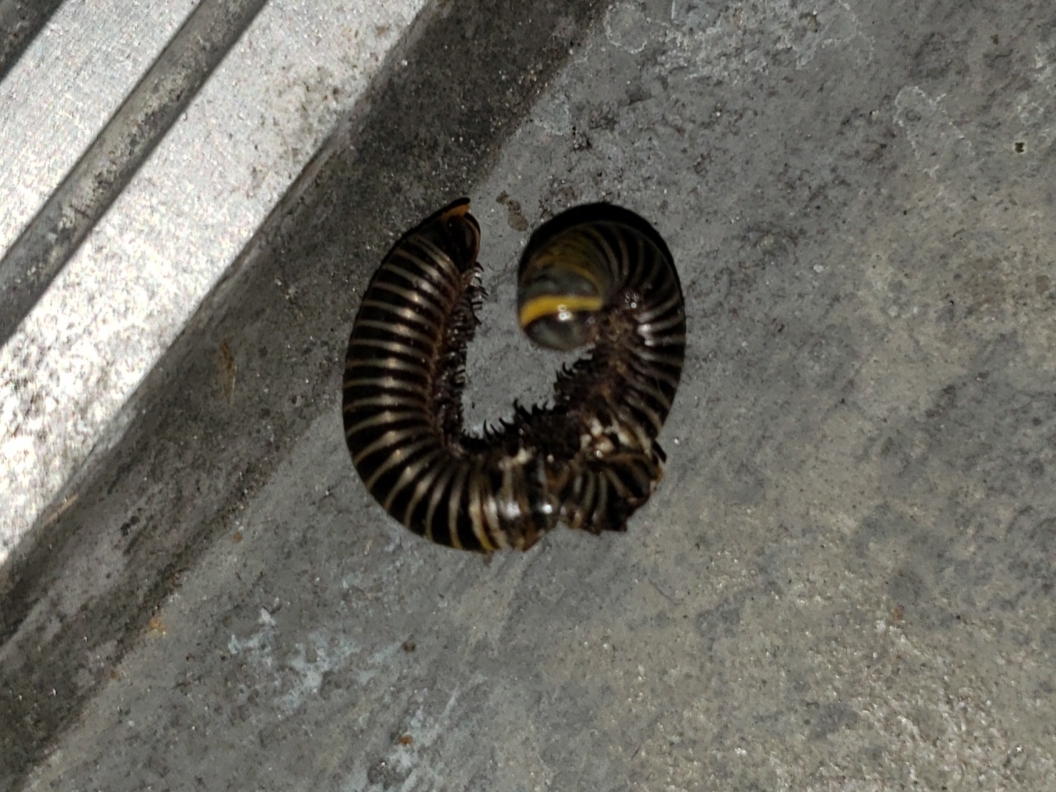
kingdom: Animalia
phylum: Arthropoda
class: Diplopoda
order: Spirobolida
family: Rhinocricidae
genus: Anadenobolus
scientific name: Anadenobolus monilicornis
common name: Caribbean millipede
